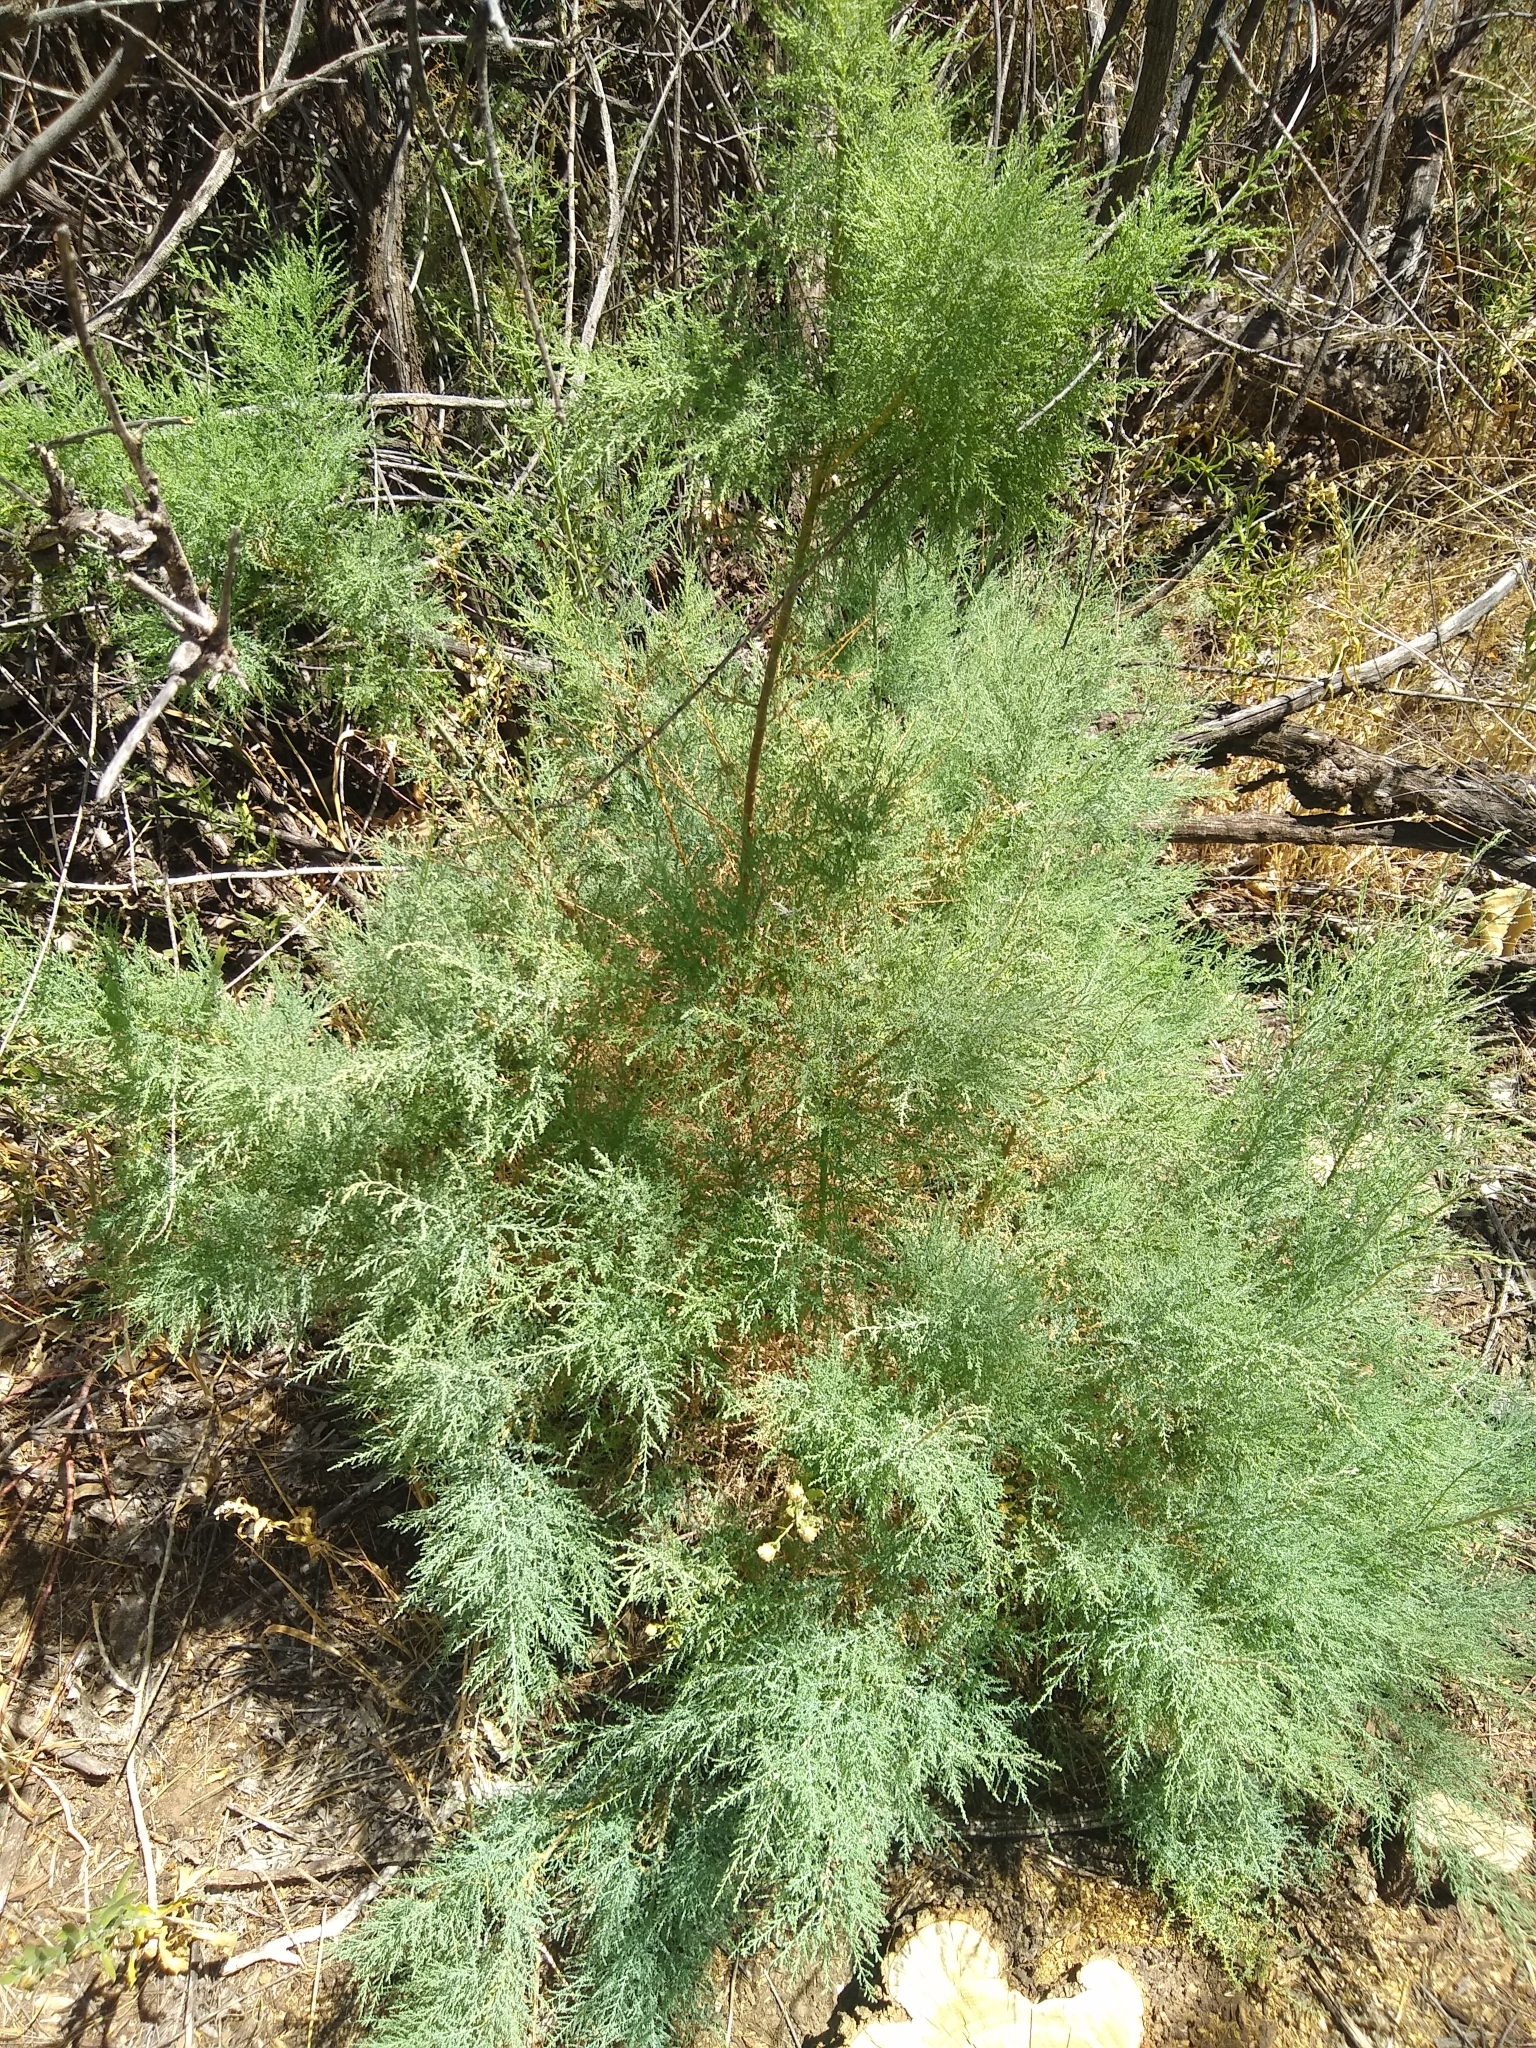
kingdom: Plantae
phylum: Tracheophyta
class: Magnoliopsida
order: Caryophyllales
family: Tamaricaceae
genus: Tamarix
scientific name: Tamarix ramosissima
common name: Pink tamarisk
